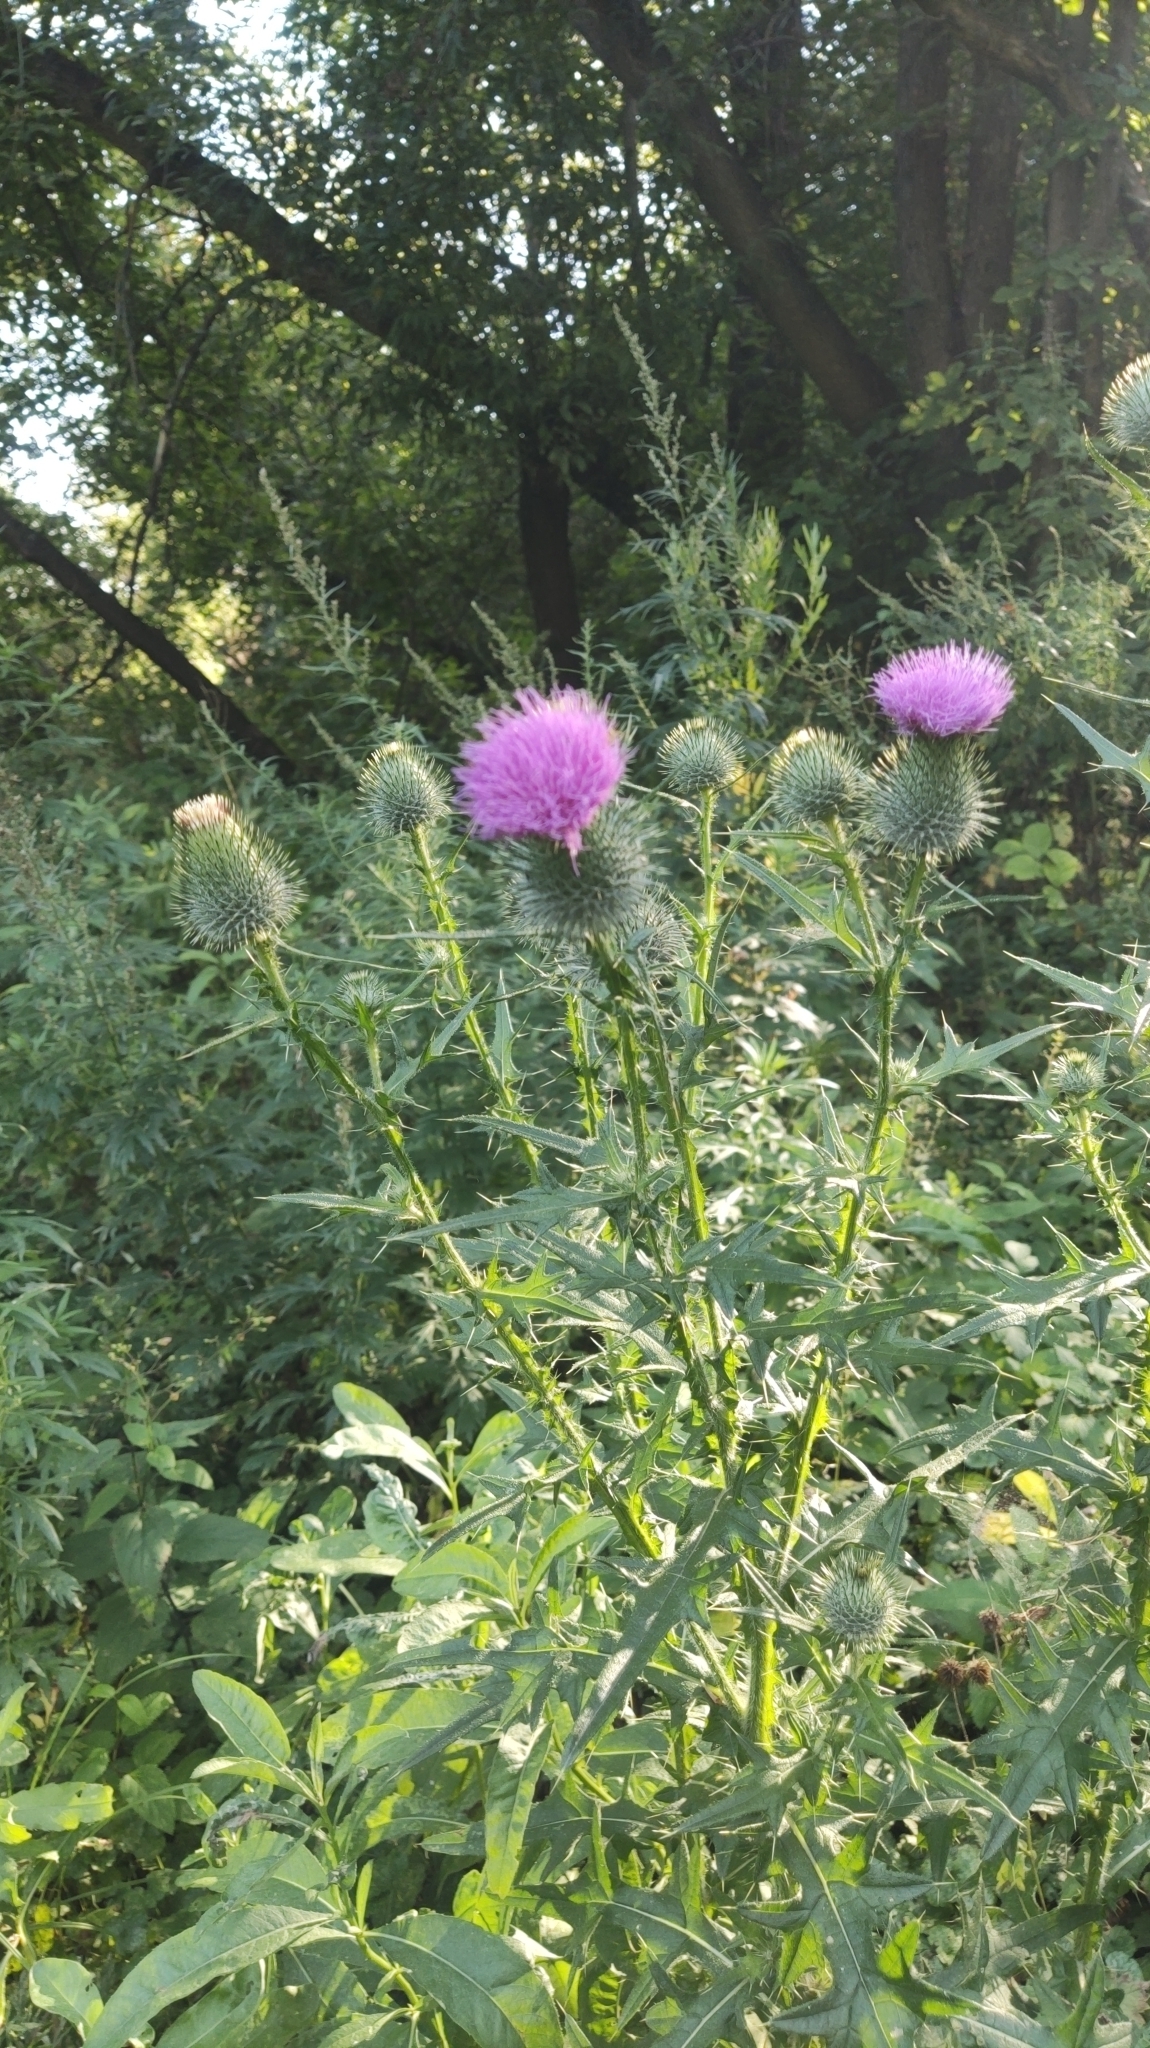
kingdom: Plantae
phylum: Tracheophyta
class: Magnoliopsida
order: Asterales
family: Asteraceae
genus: Cirsium
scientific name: Cirsium vulgare
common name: Bull thistle
